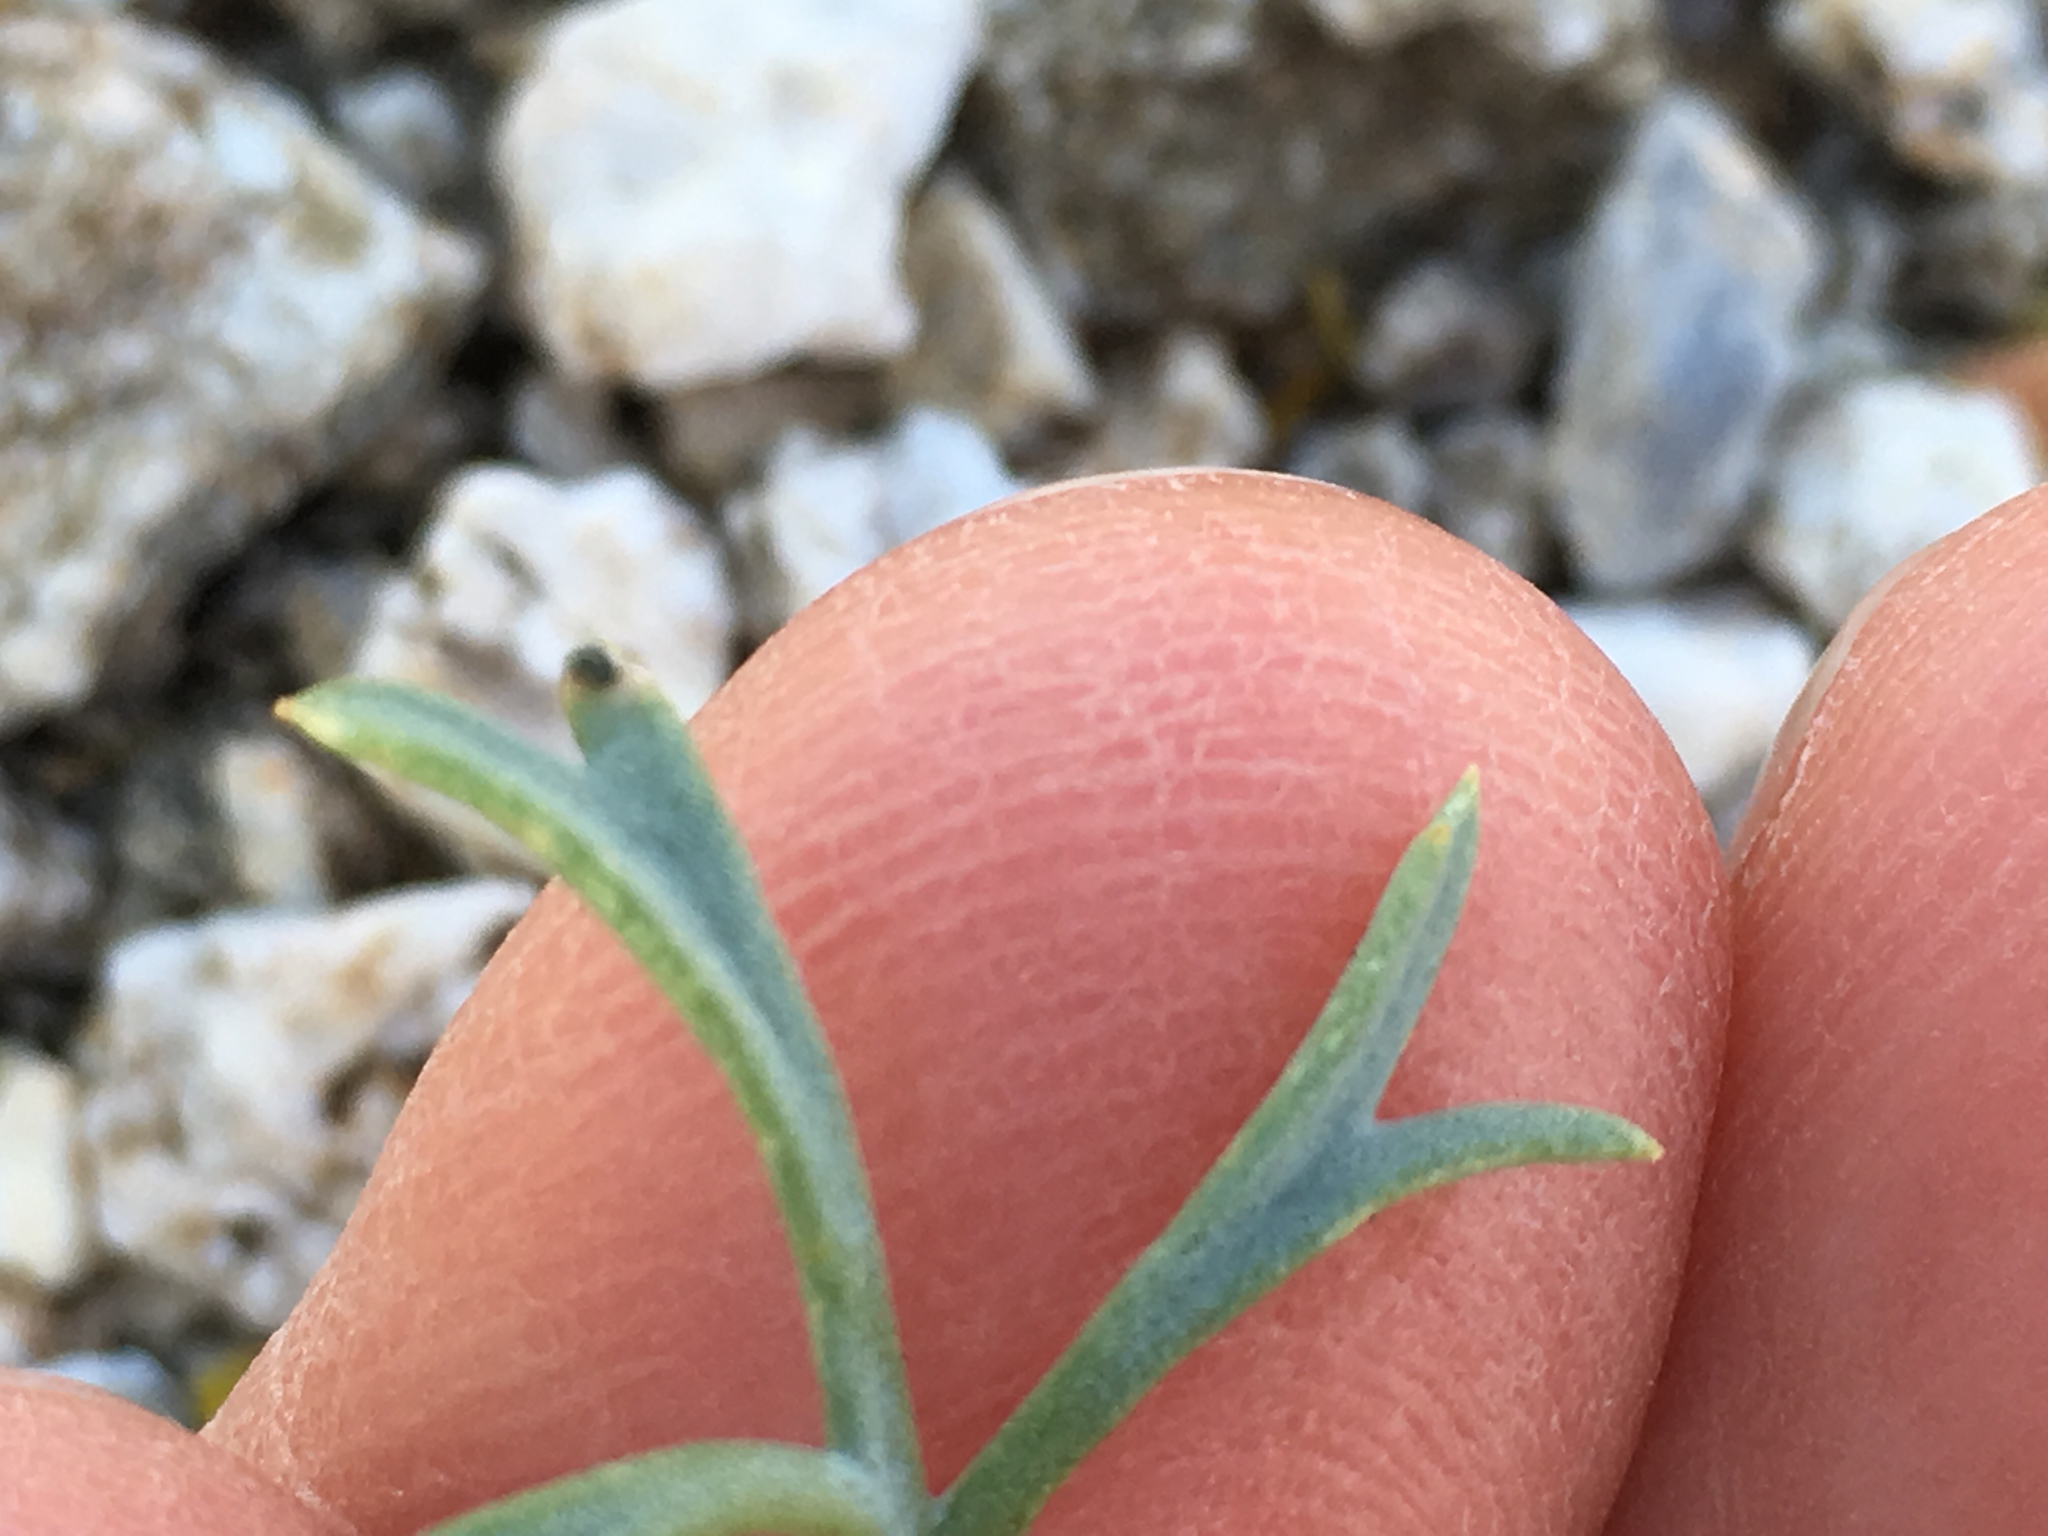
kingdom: Plantae
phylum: Tracheophyta
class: Magnoliopsida
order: Ranunculales
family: Papaveraceae
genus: Eschscholzia
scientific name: Eschscholzia parishii
